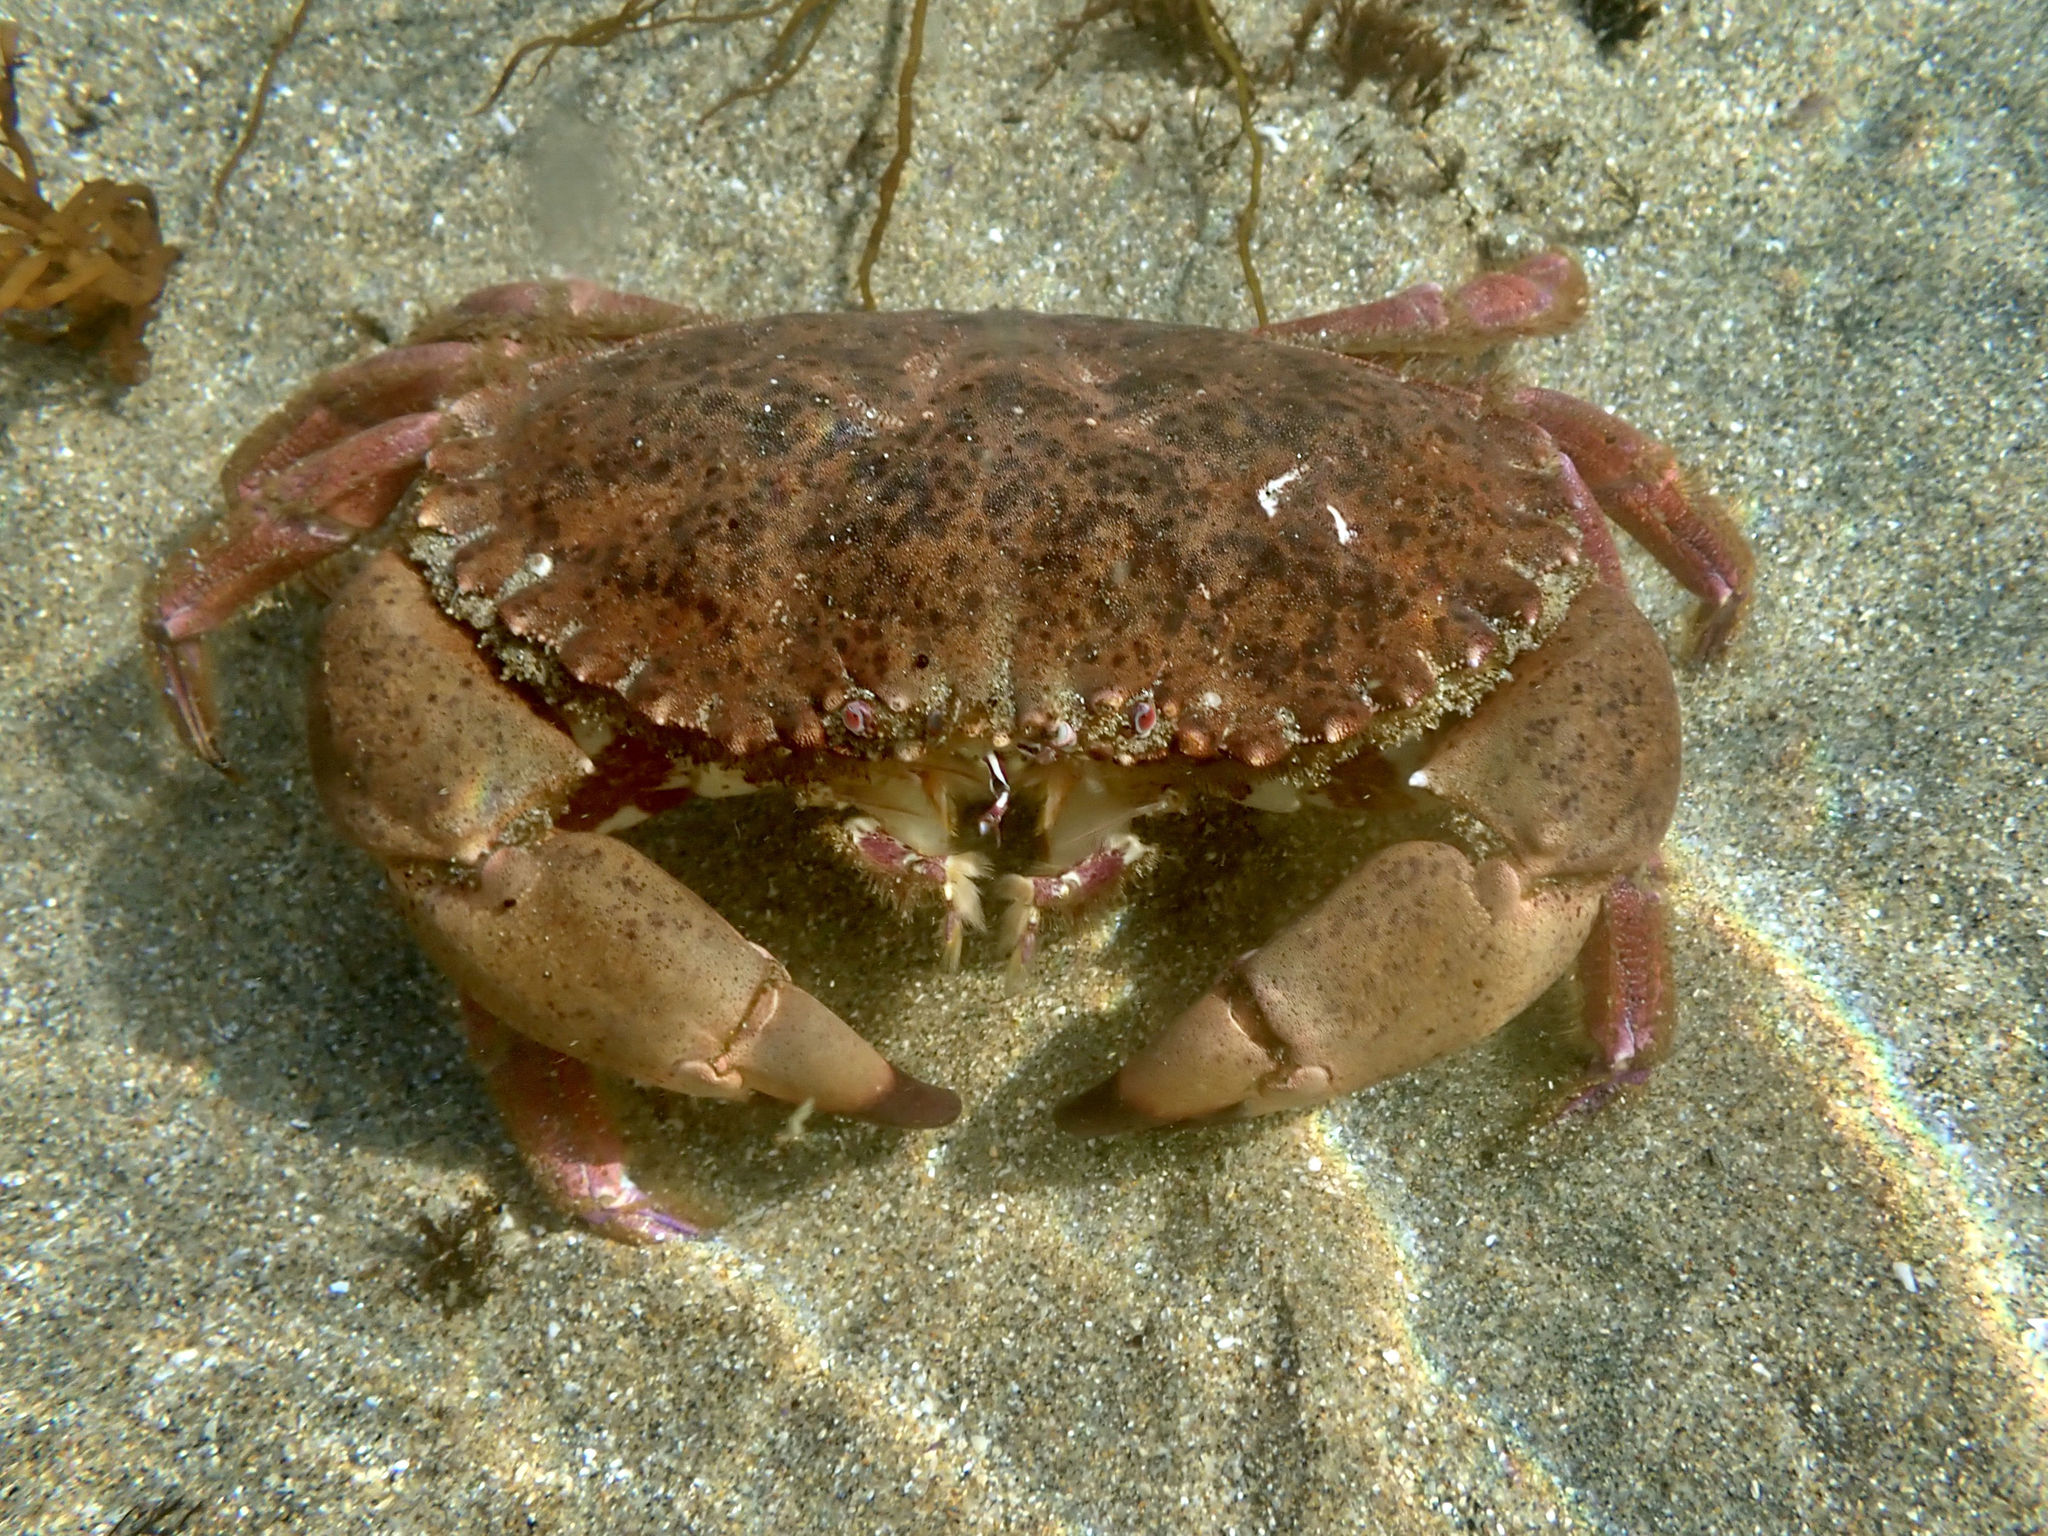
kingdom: Animalia
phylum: Arthropoda
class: Malacostraca
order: Decapoda
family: Cancridae
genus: Romaleon
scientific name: Romaleon antennarium
